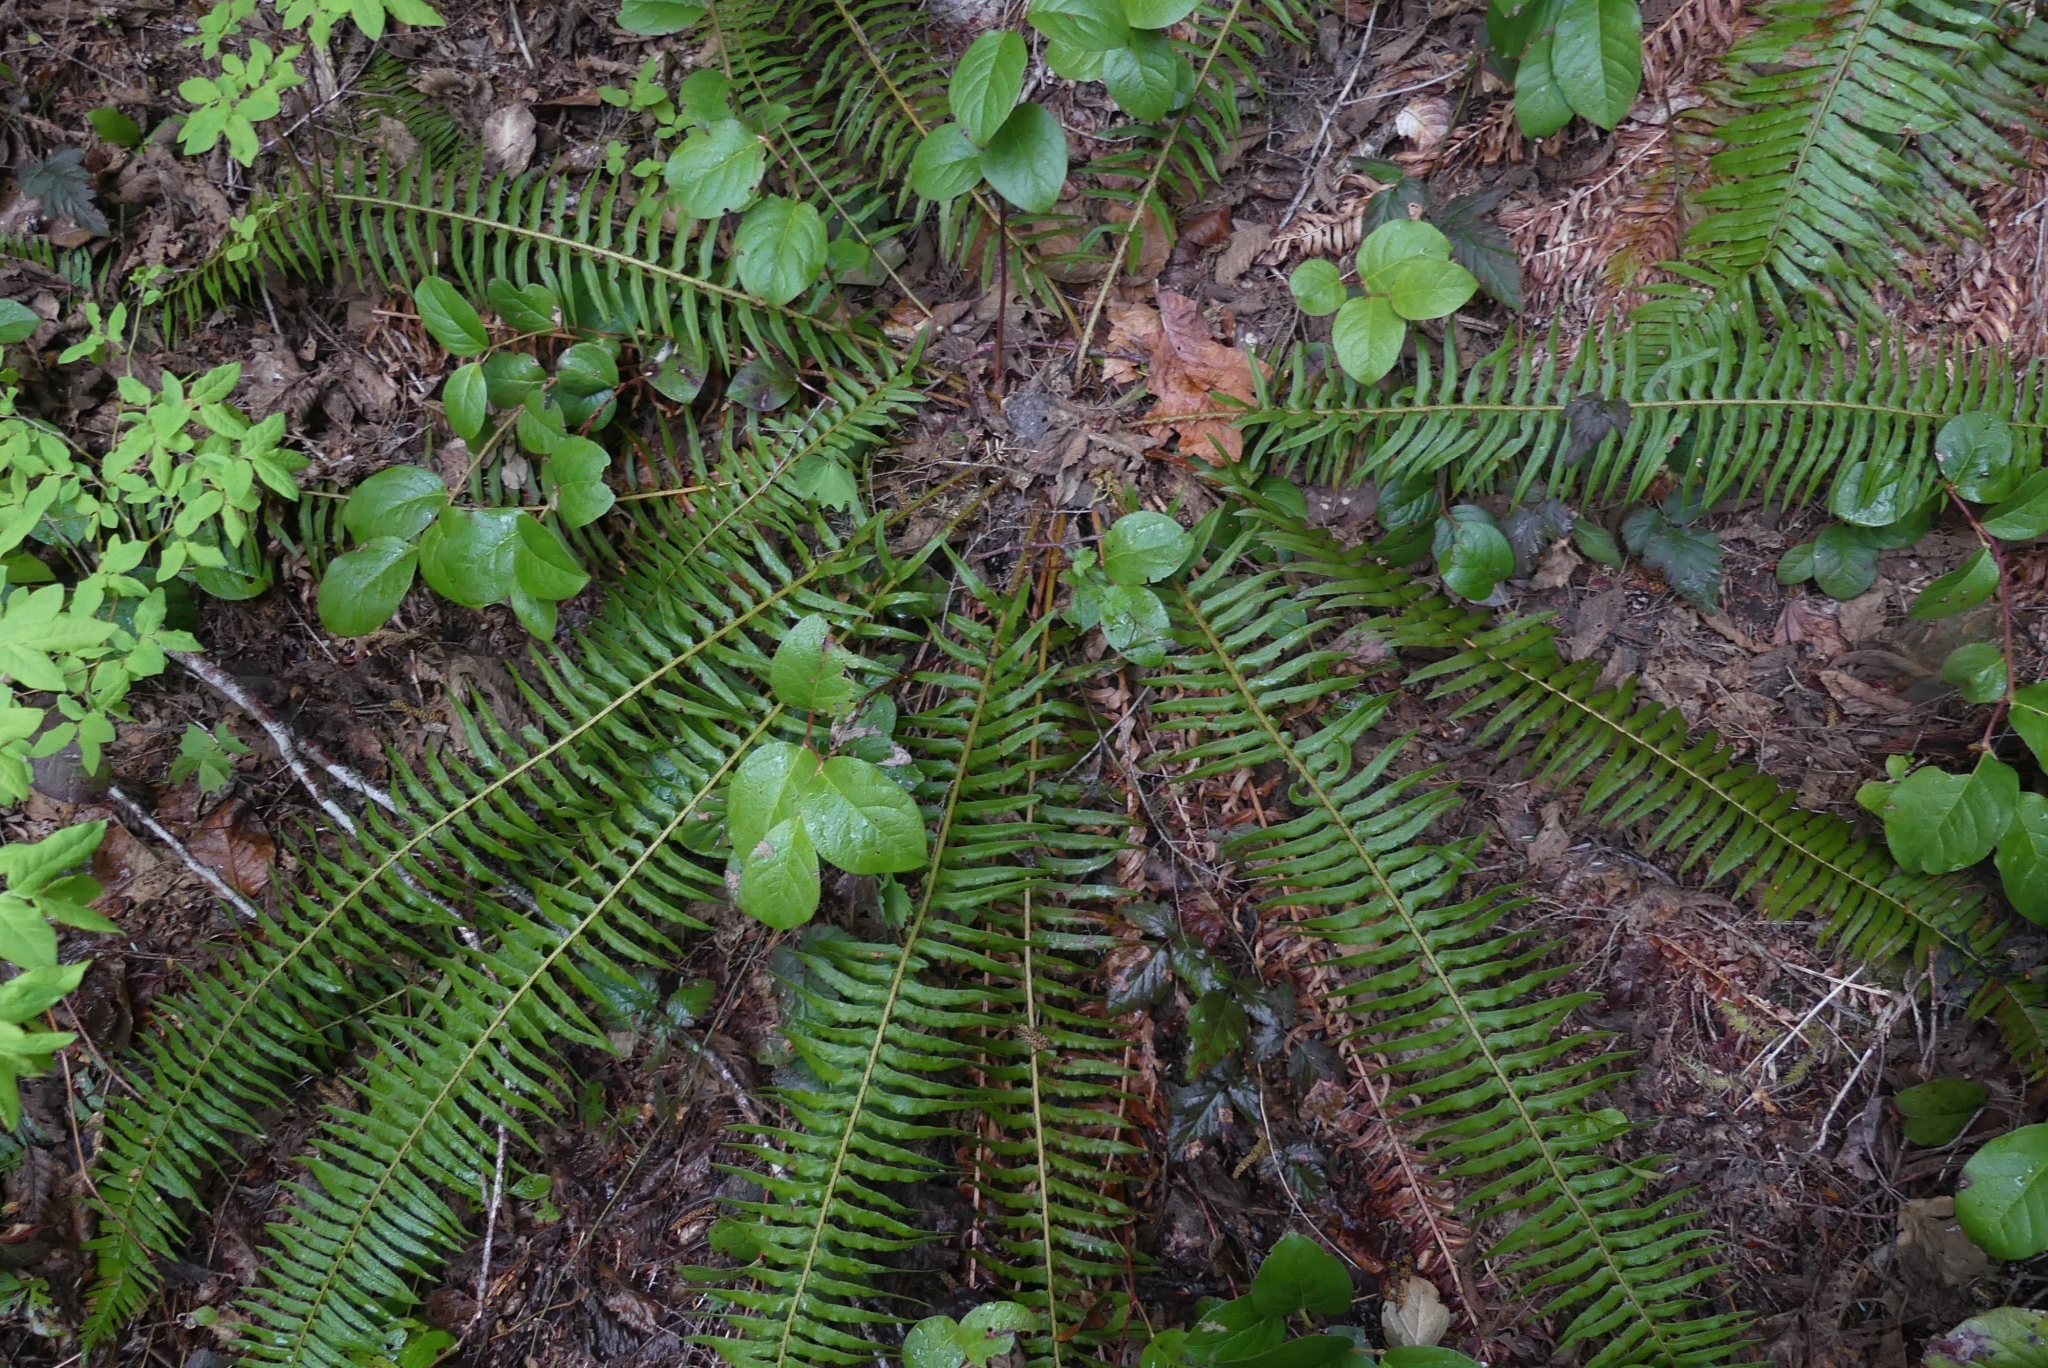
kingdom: Plantae
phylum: Tracheophyta
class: Polypodiopsida
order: Polypodiales
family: Dryopteridaceae
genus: Polystichum
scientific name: Polystichum munitum
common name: Western sword-fern
